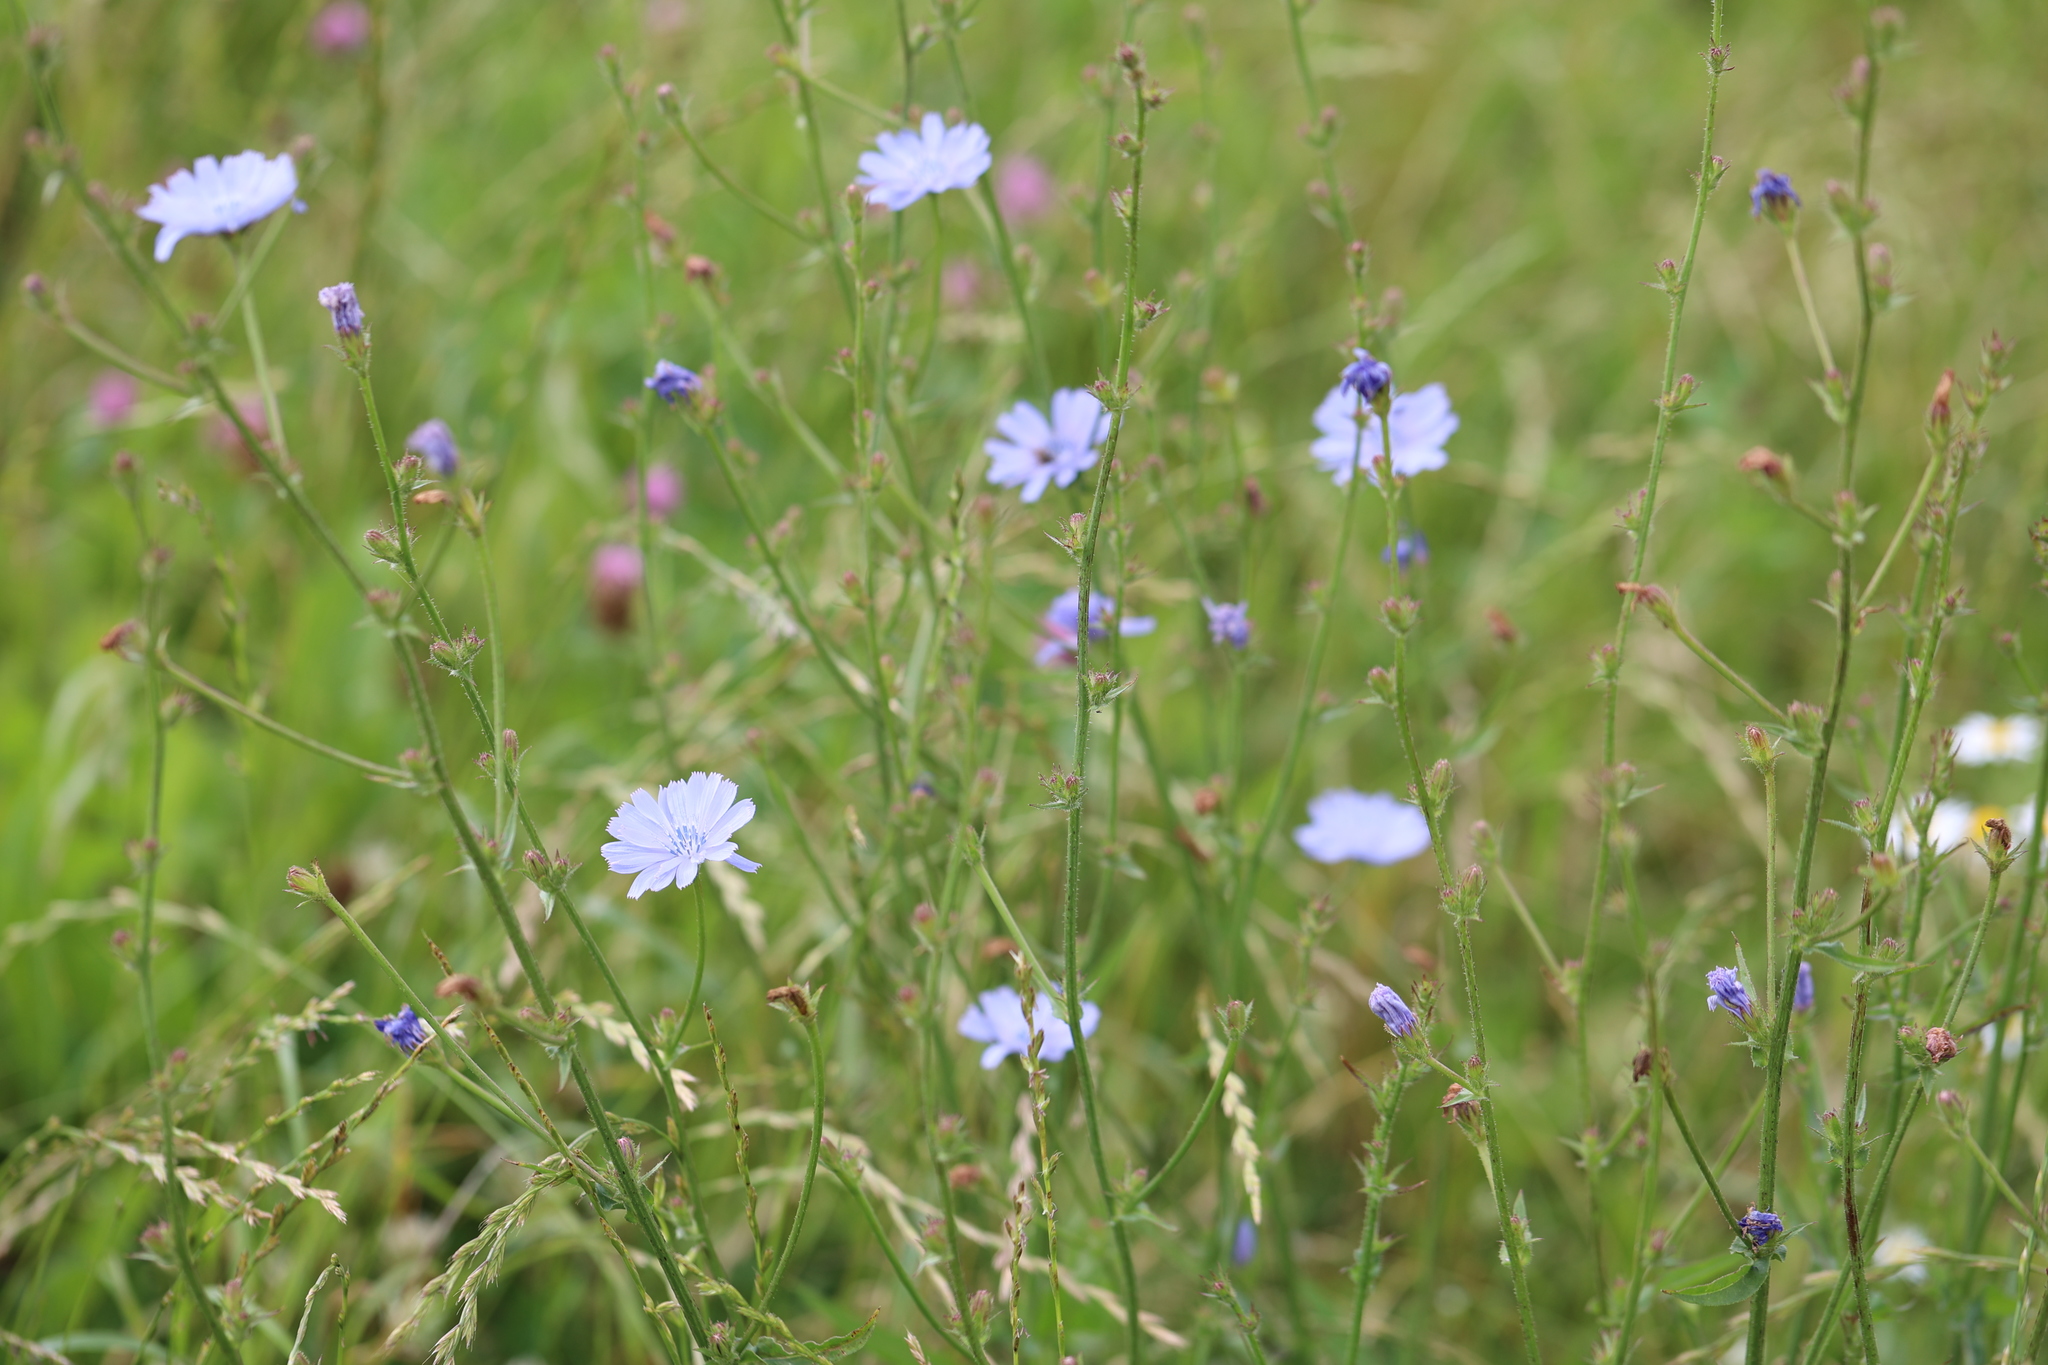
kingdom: Plantae
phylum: Tracheophyta
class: Magnoliopsida
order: Asterales
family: Asteraceae
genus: Cichorium
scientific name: Cichorium intybus
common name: Chicory
